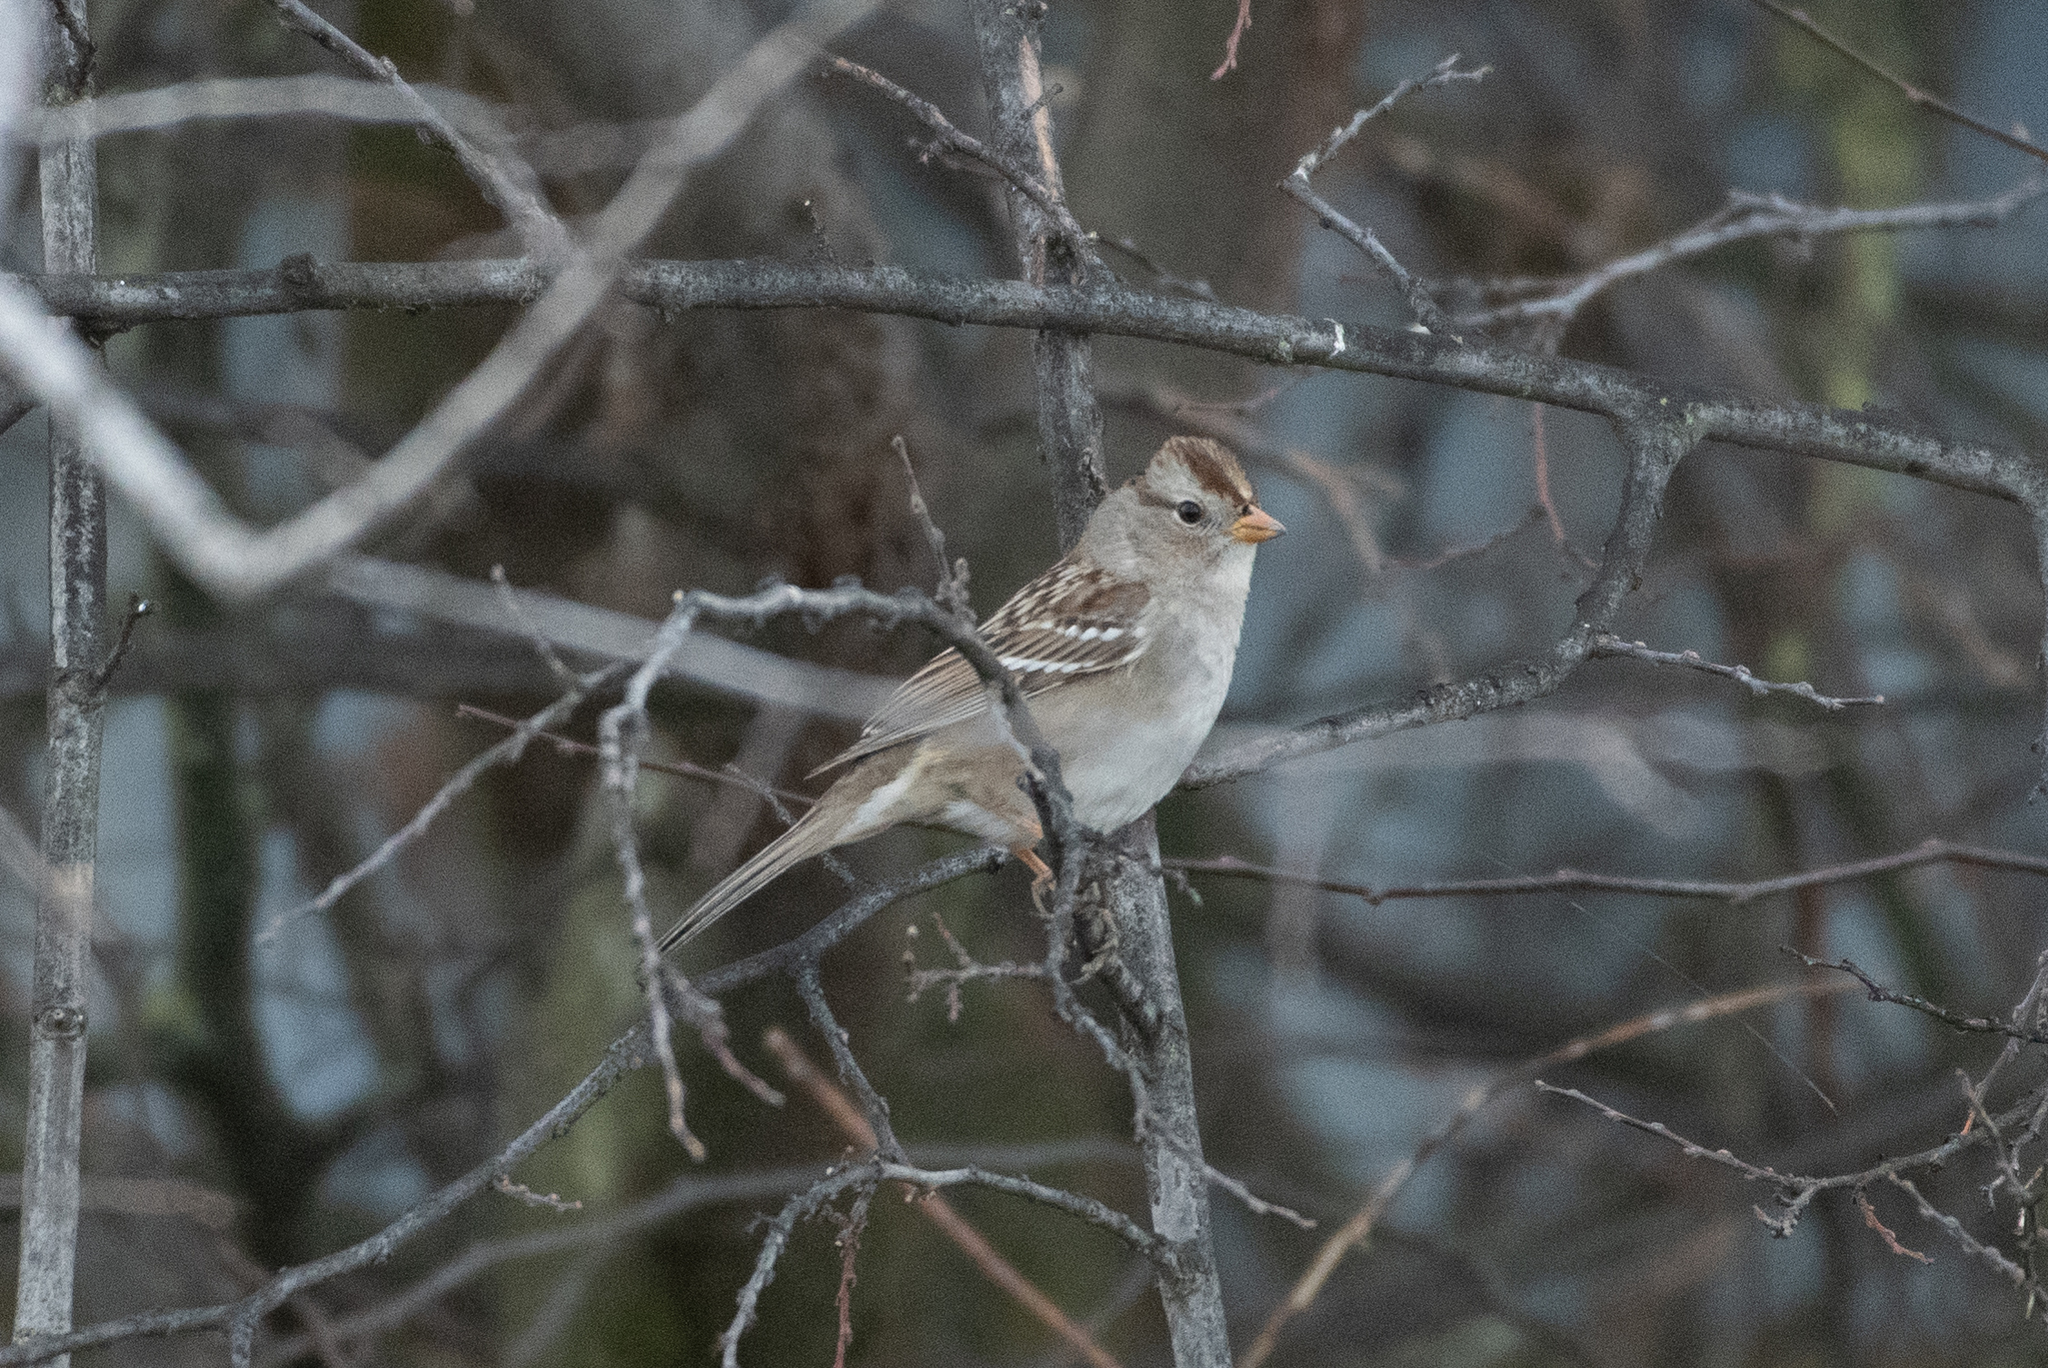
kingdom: Animalia
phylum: Chordata
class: Aves
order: Passeriformes
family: Passerellidae
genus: Zonotrichia
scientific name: Zonotrichia leucophrys
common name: White-crowned sparrow
